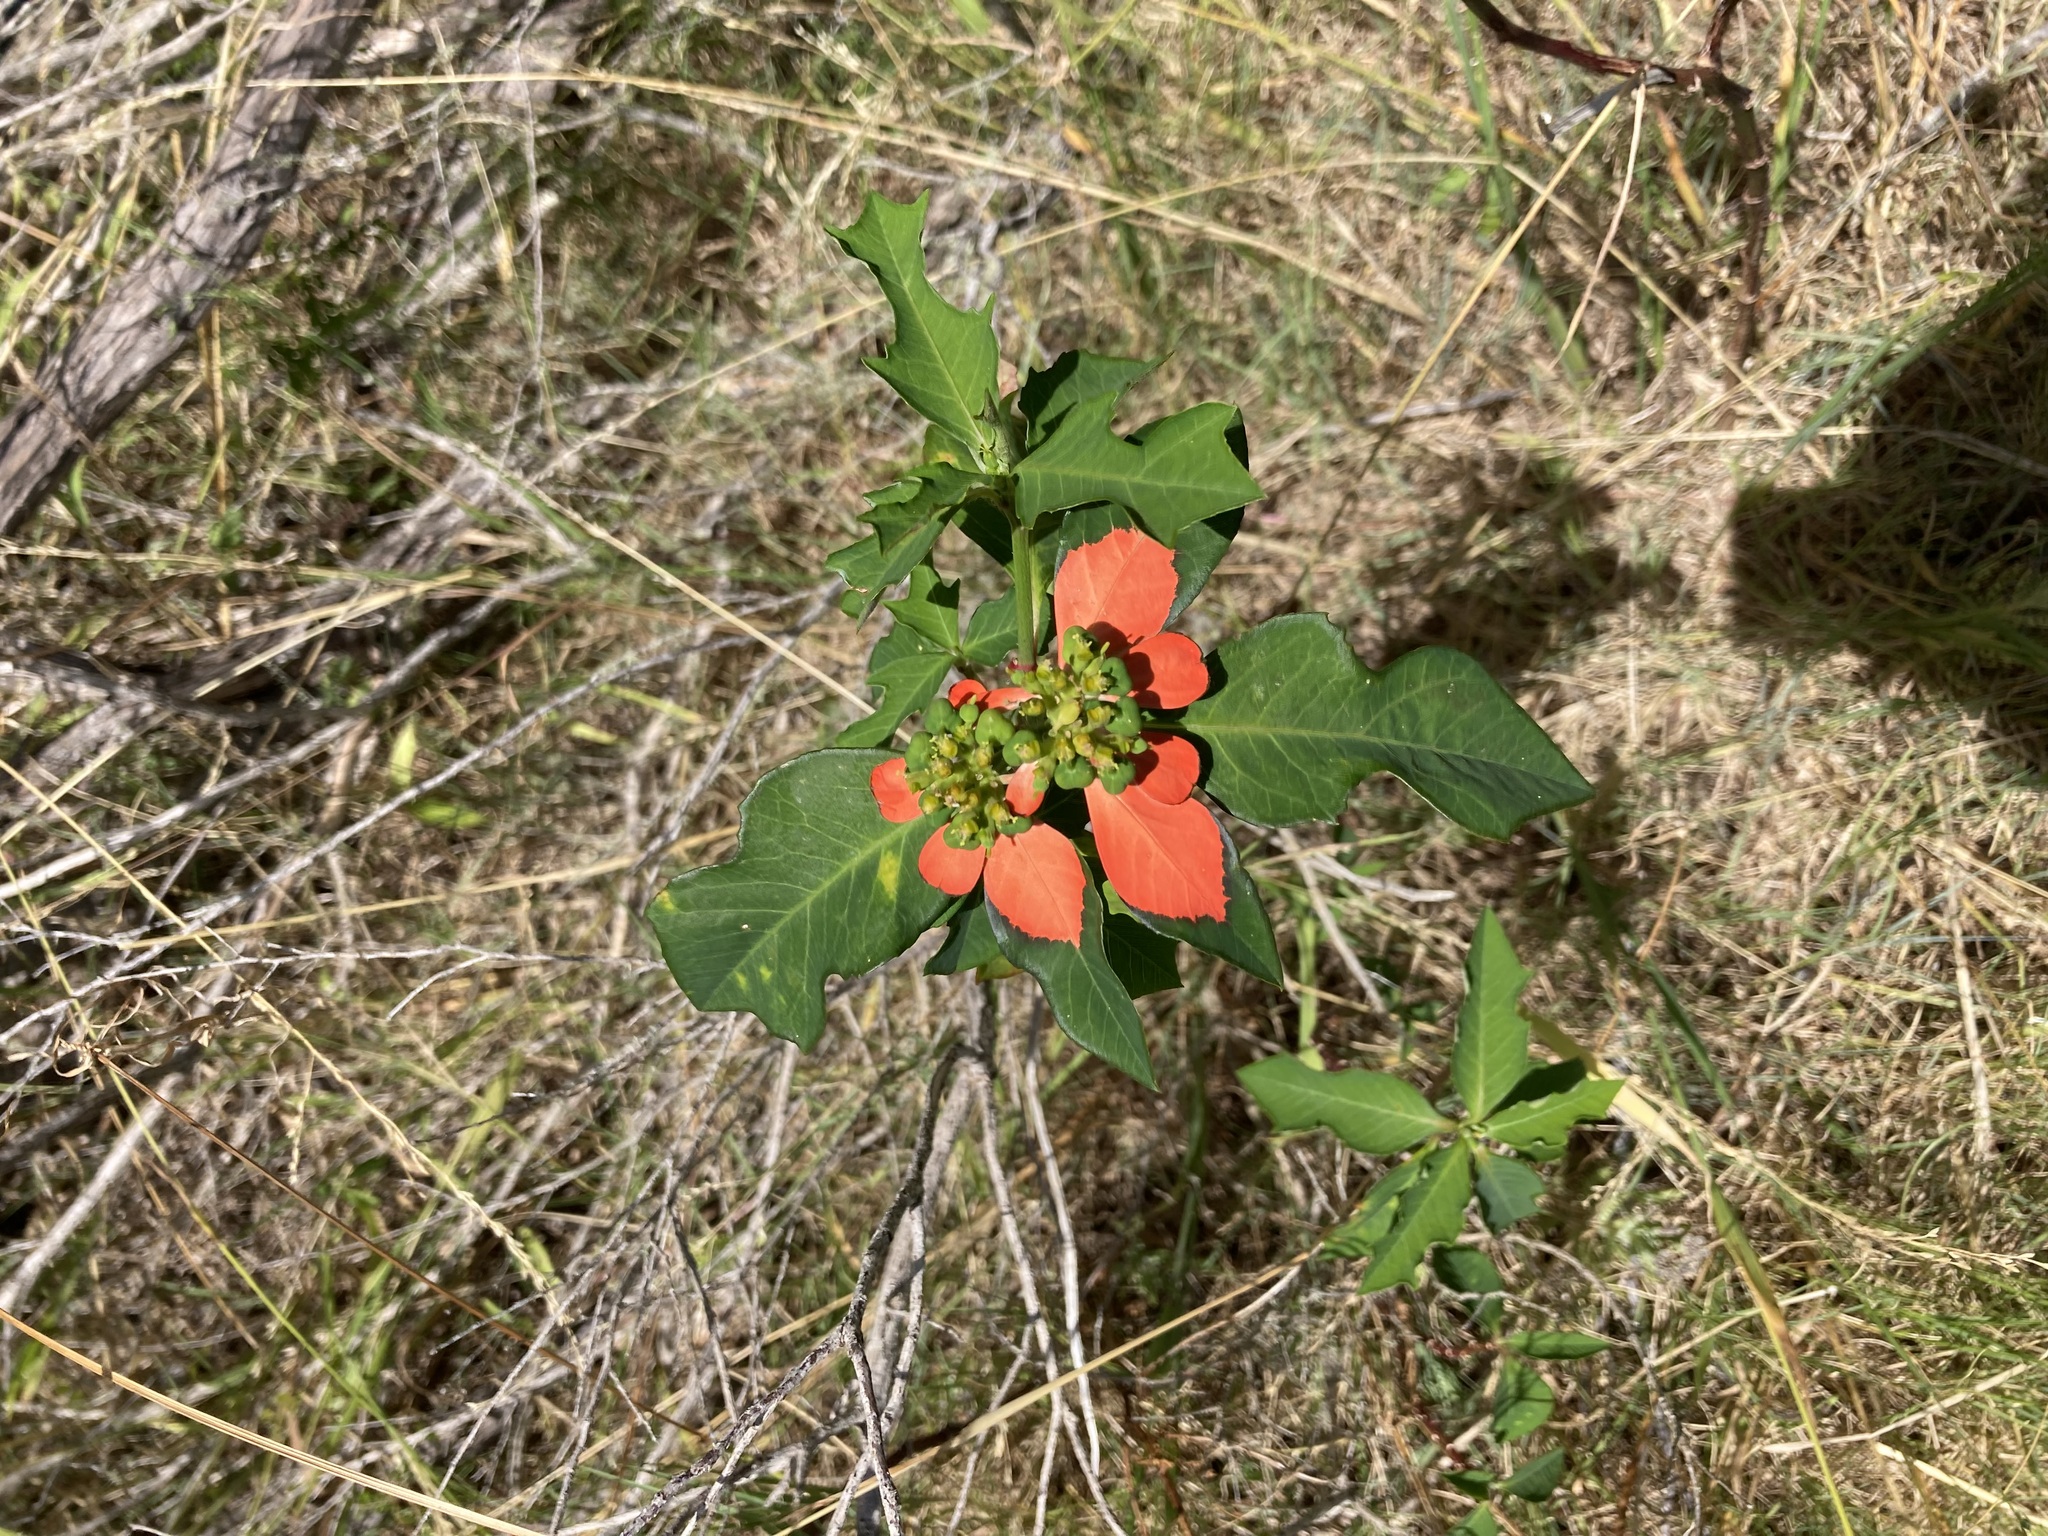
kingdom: Plantae
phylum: Tracheophyta
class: Magnoliopsida
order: Malpighiales
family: Euphorbiaceae
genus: Euphorbia
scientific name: Euphorbia heterophylla
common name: Mexican fireplant
